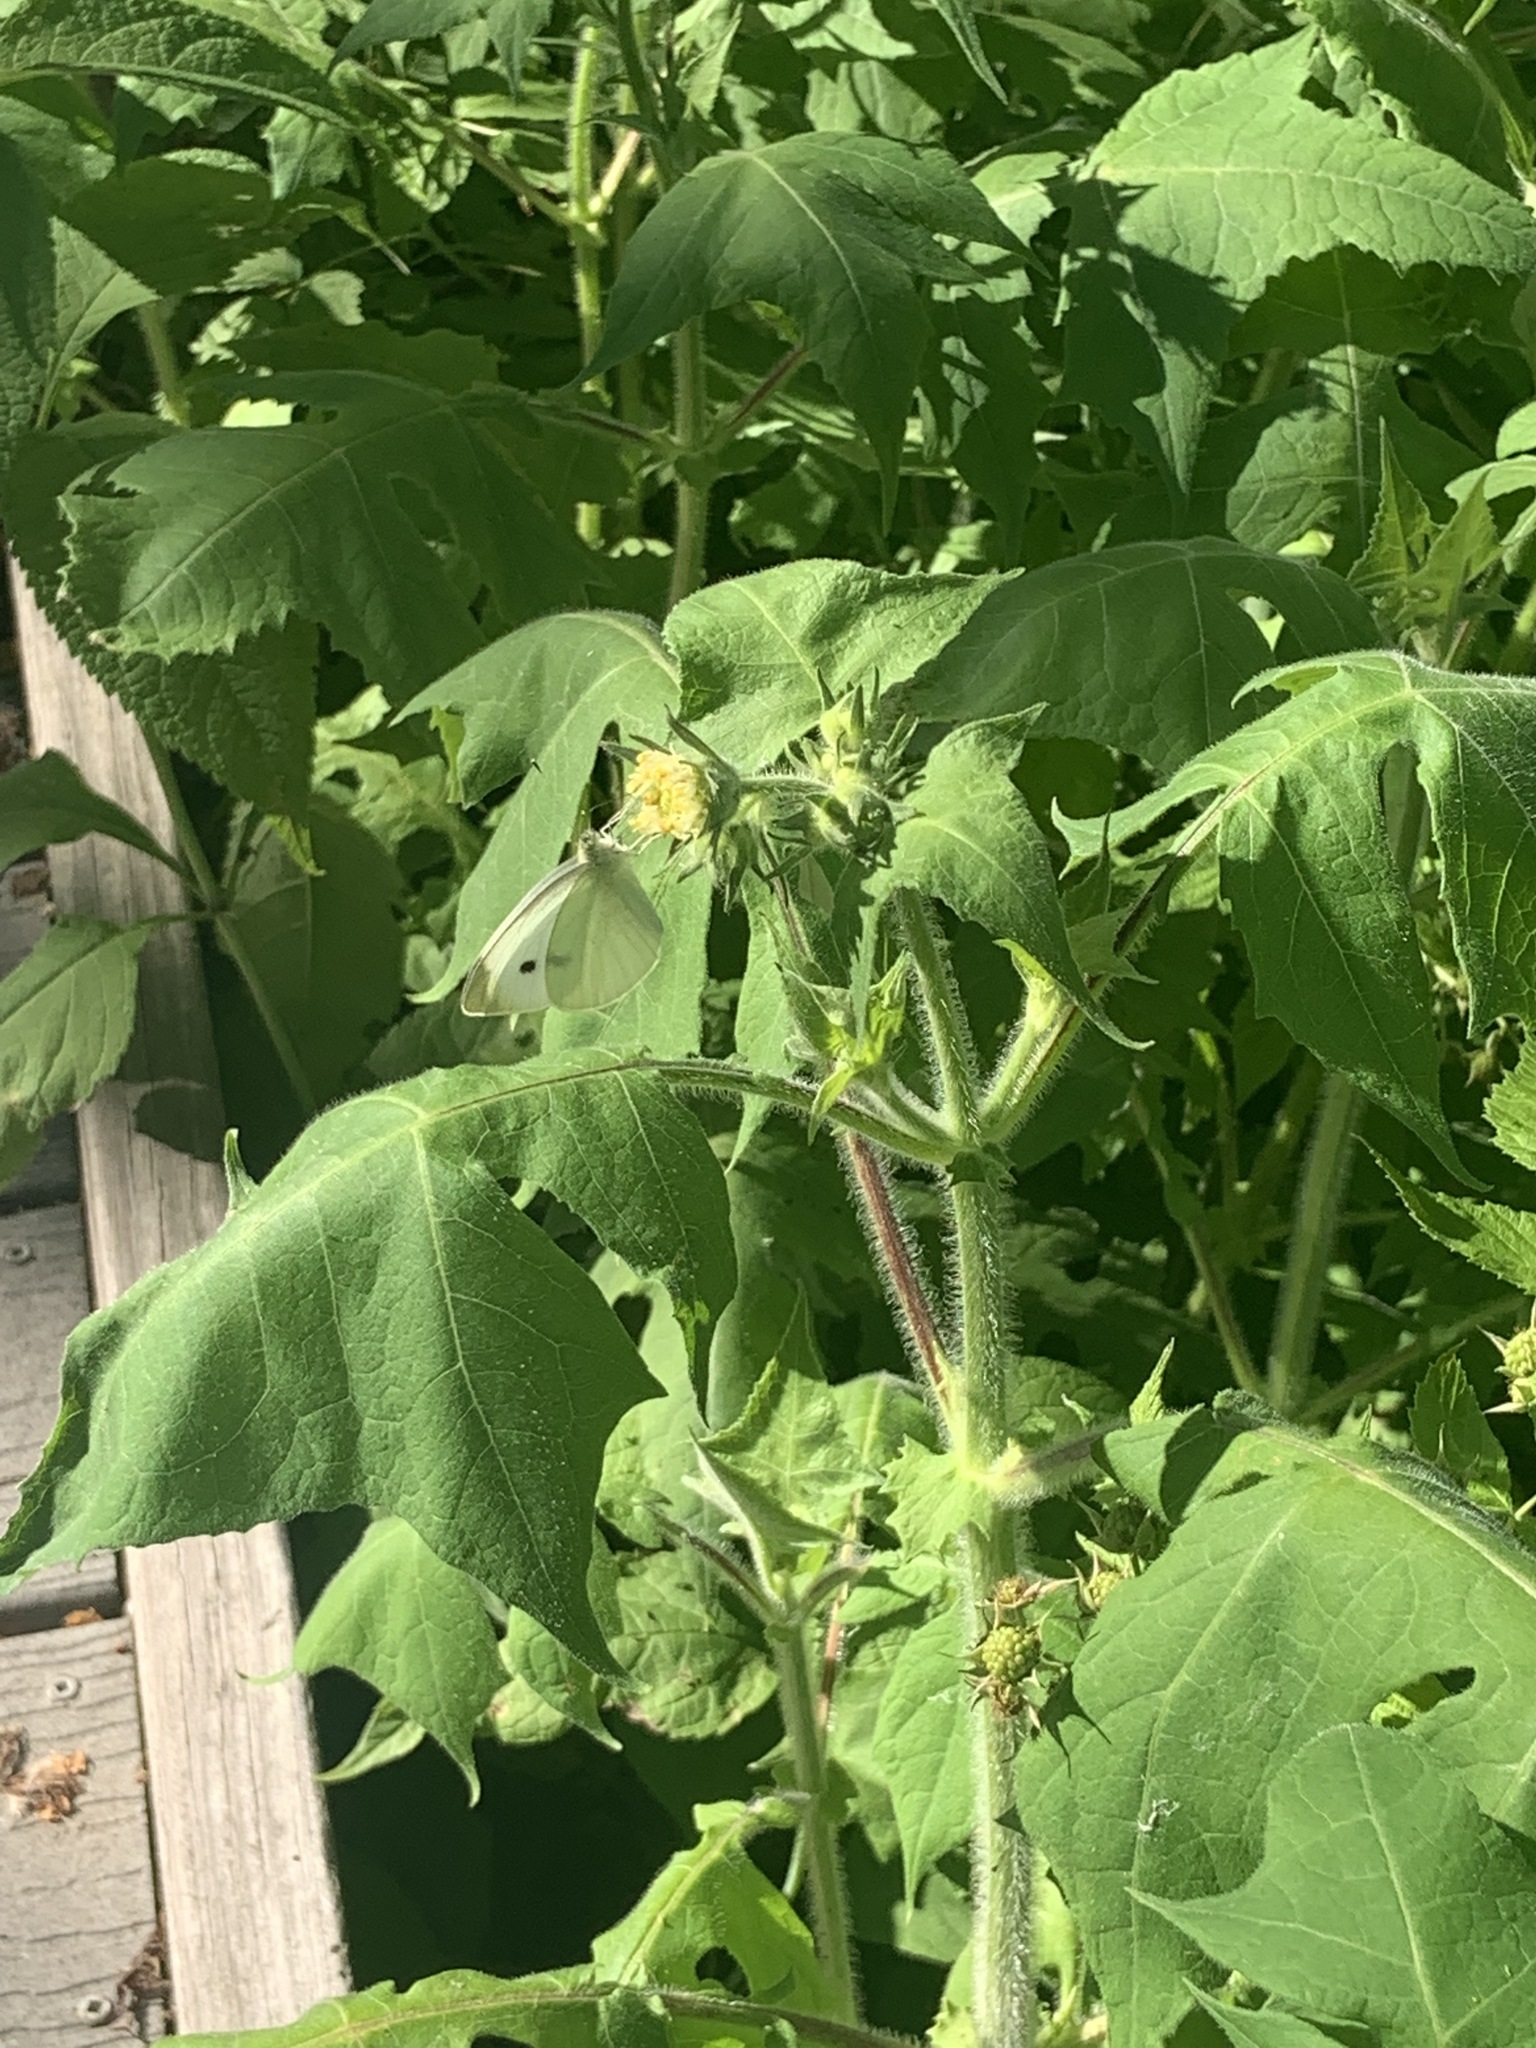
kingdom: Animalia
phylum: Arthropoda
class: Insecta
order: Lepidoptera
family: Pieridae
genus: Pieris
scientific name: Pieris rapae
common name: Small white
